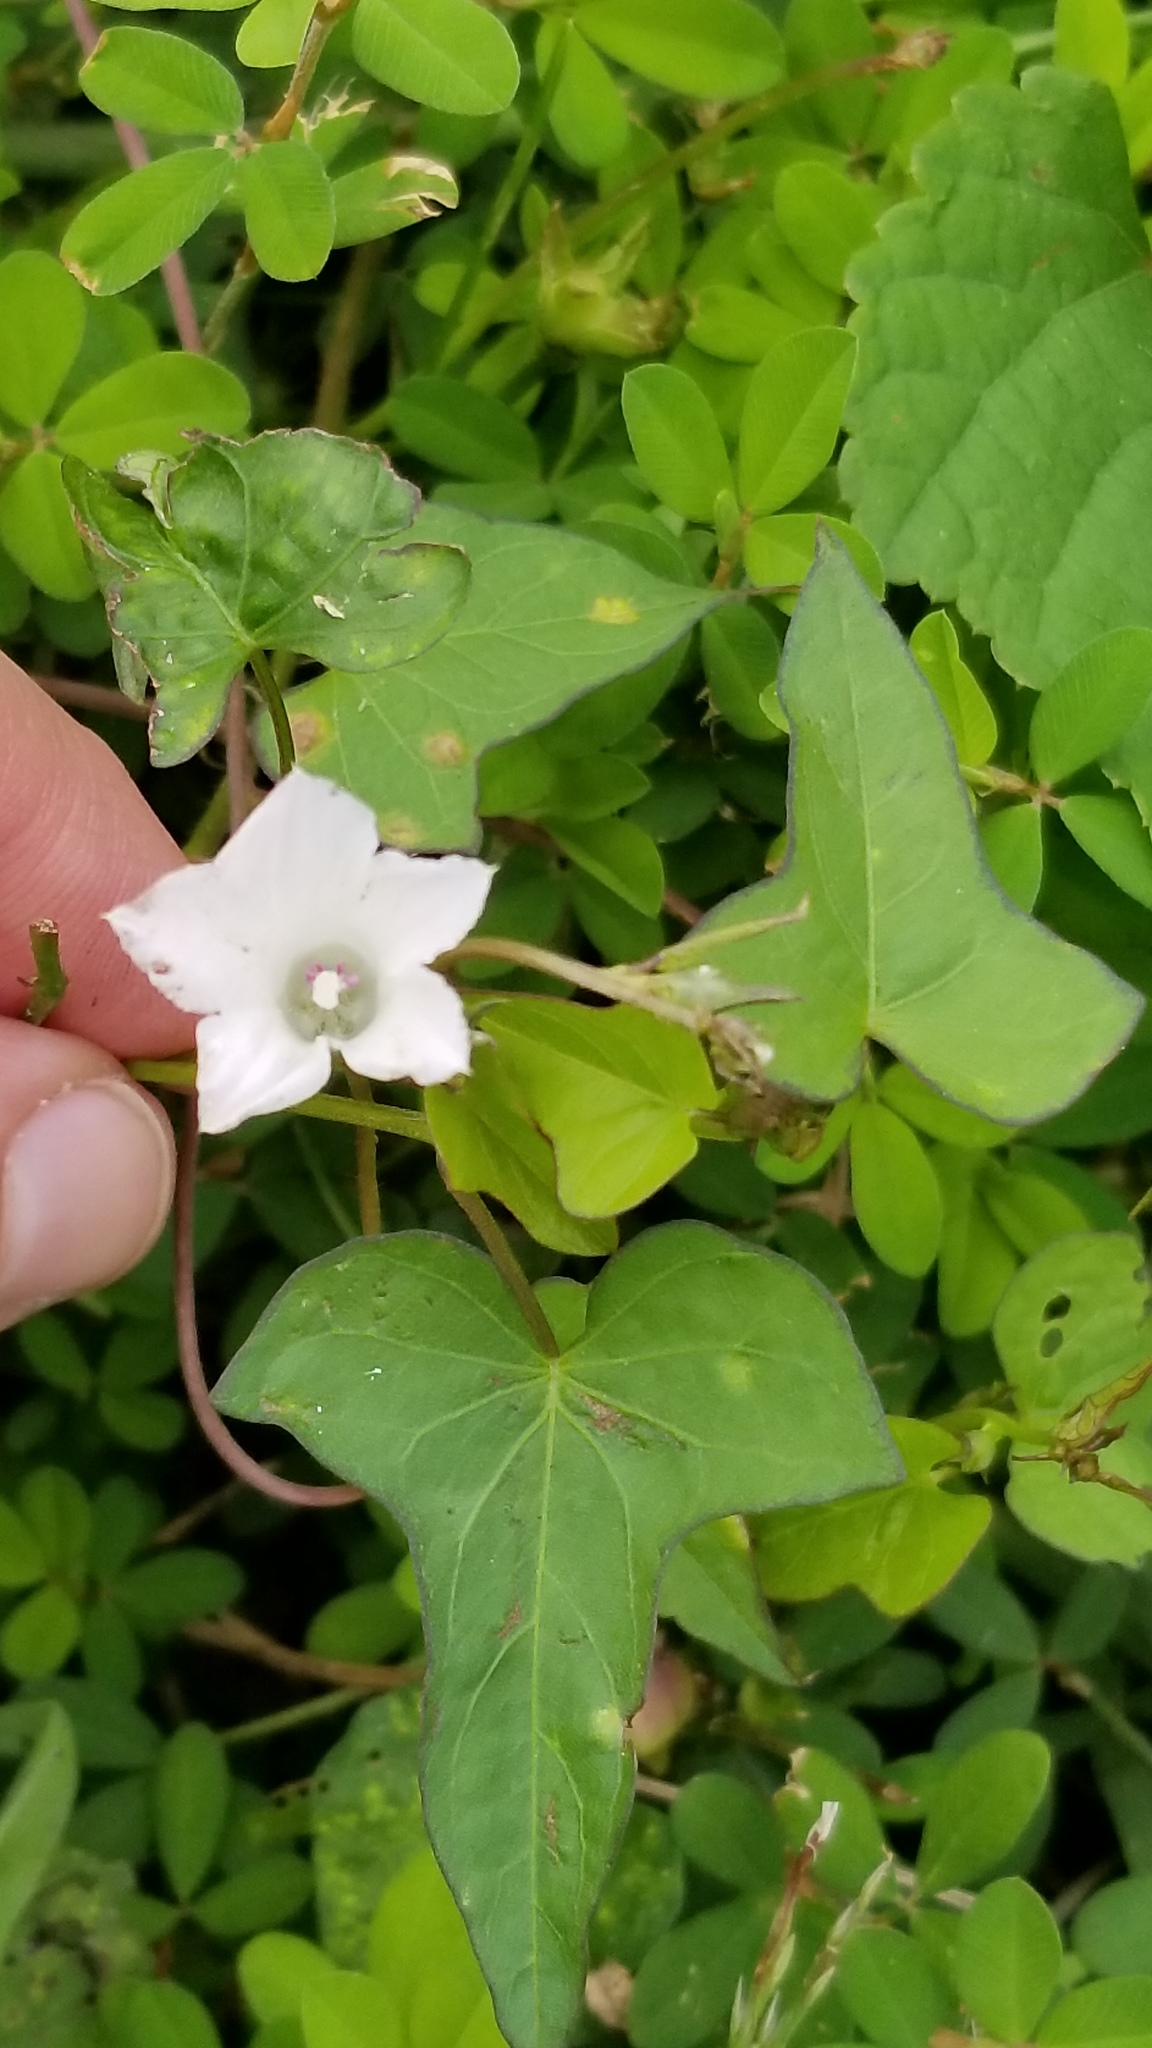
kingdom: Plantae
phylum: Tracheophyta
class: Magnoliopsida
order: Solanales
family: Convolvulaceae
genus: Ipomoea
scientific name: Ipomoea lacunosa
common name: White morning-glory
